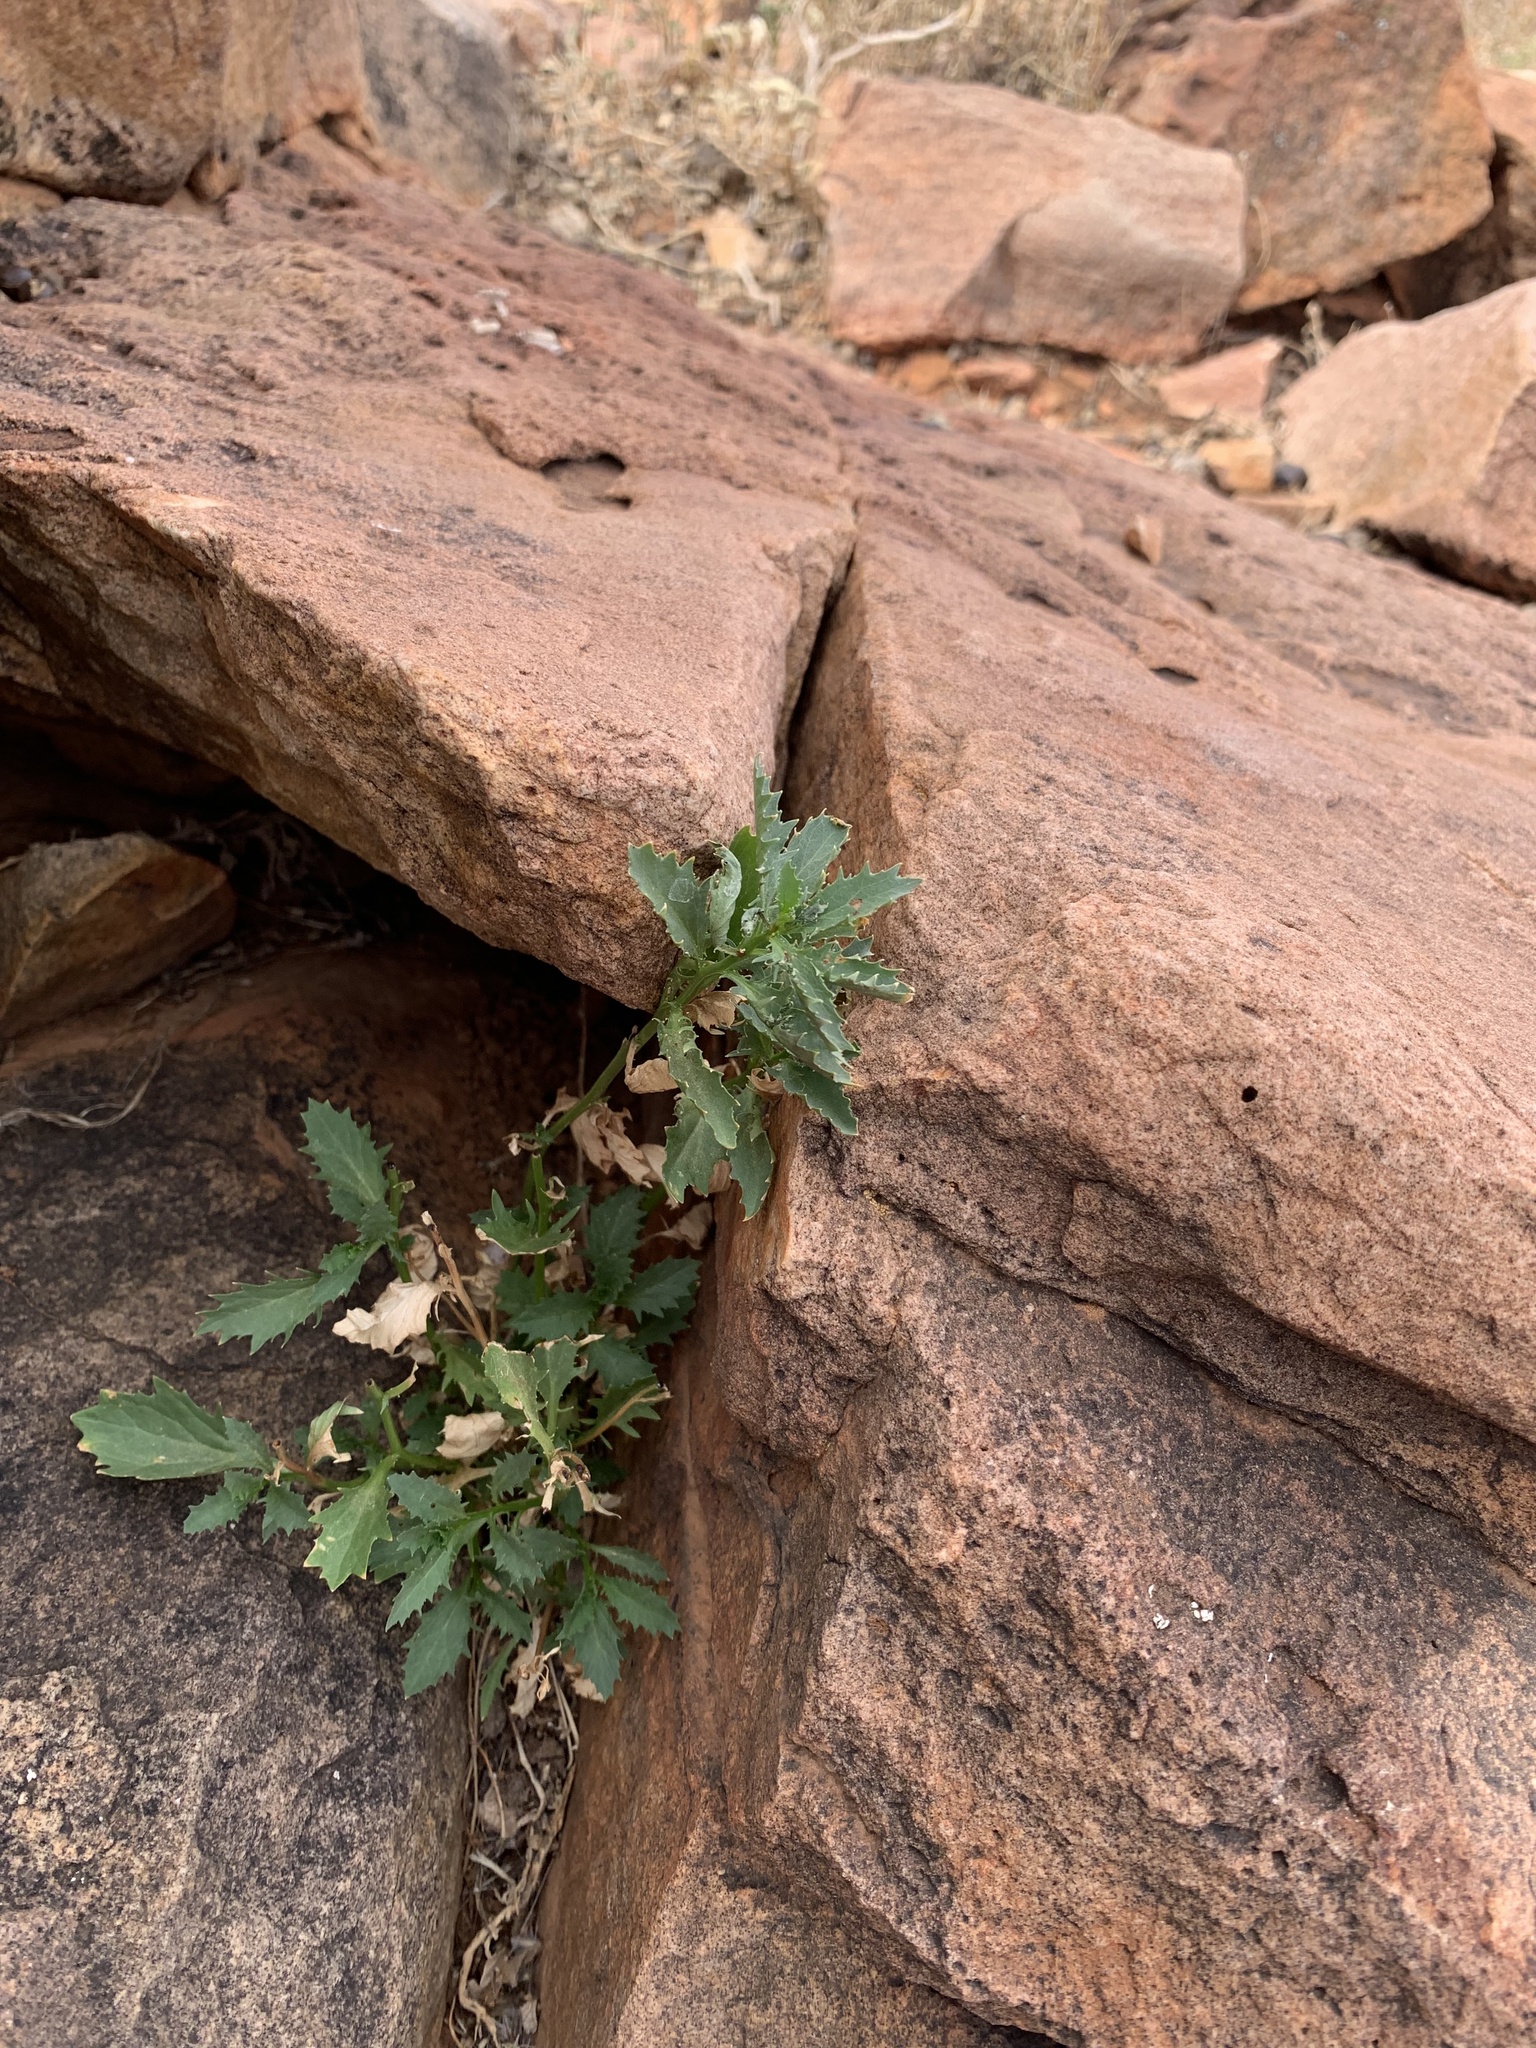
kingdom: Plantae
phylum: Tracheophyta
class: Magnoliopsida
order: Asterales
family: Campanulaceae
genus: Lithotoma
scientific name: Lithotoma petraea
